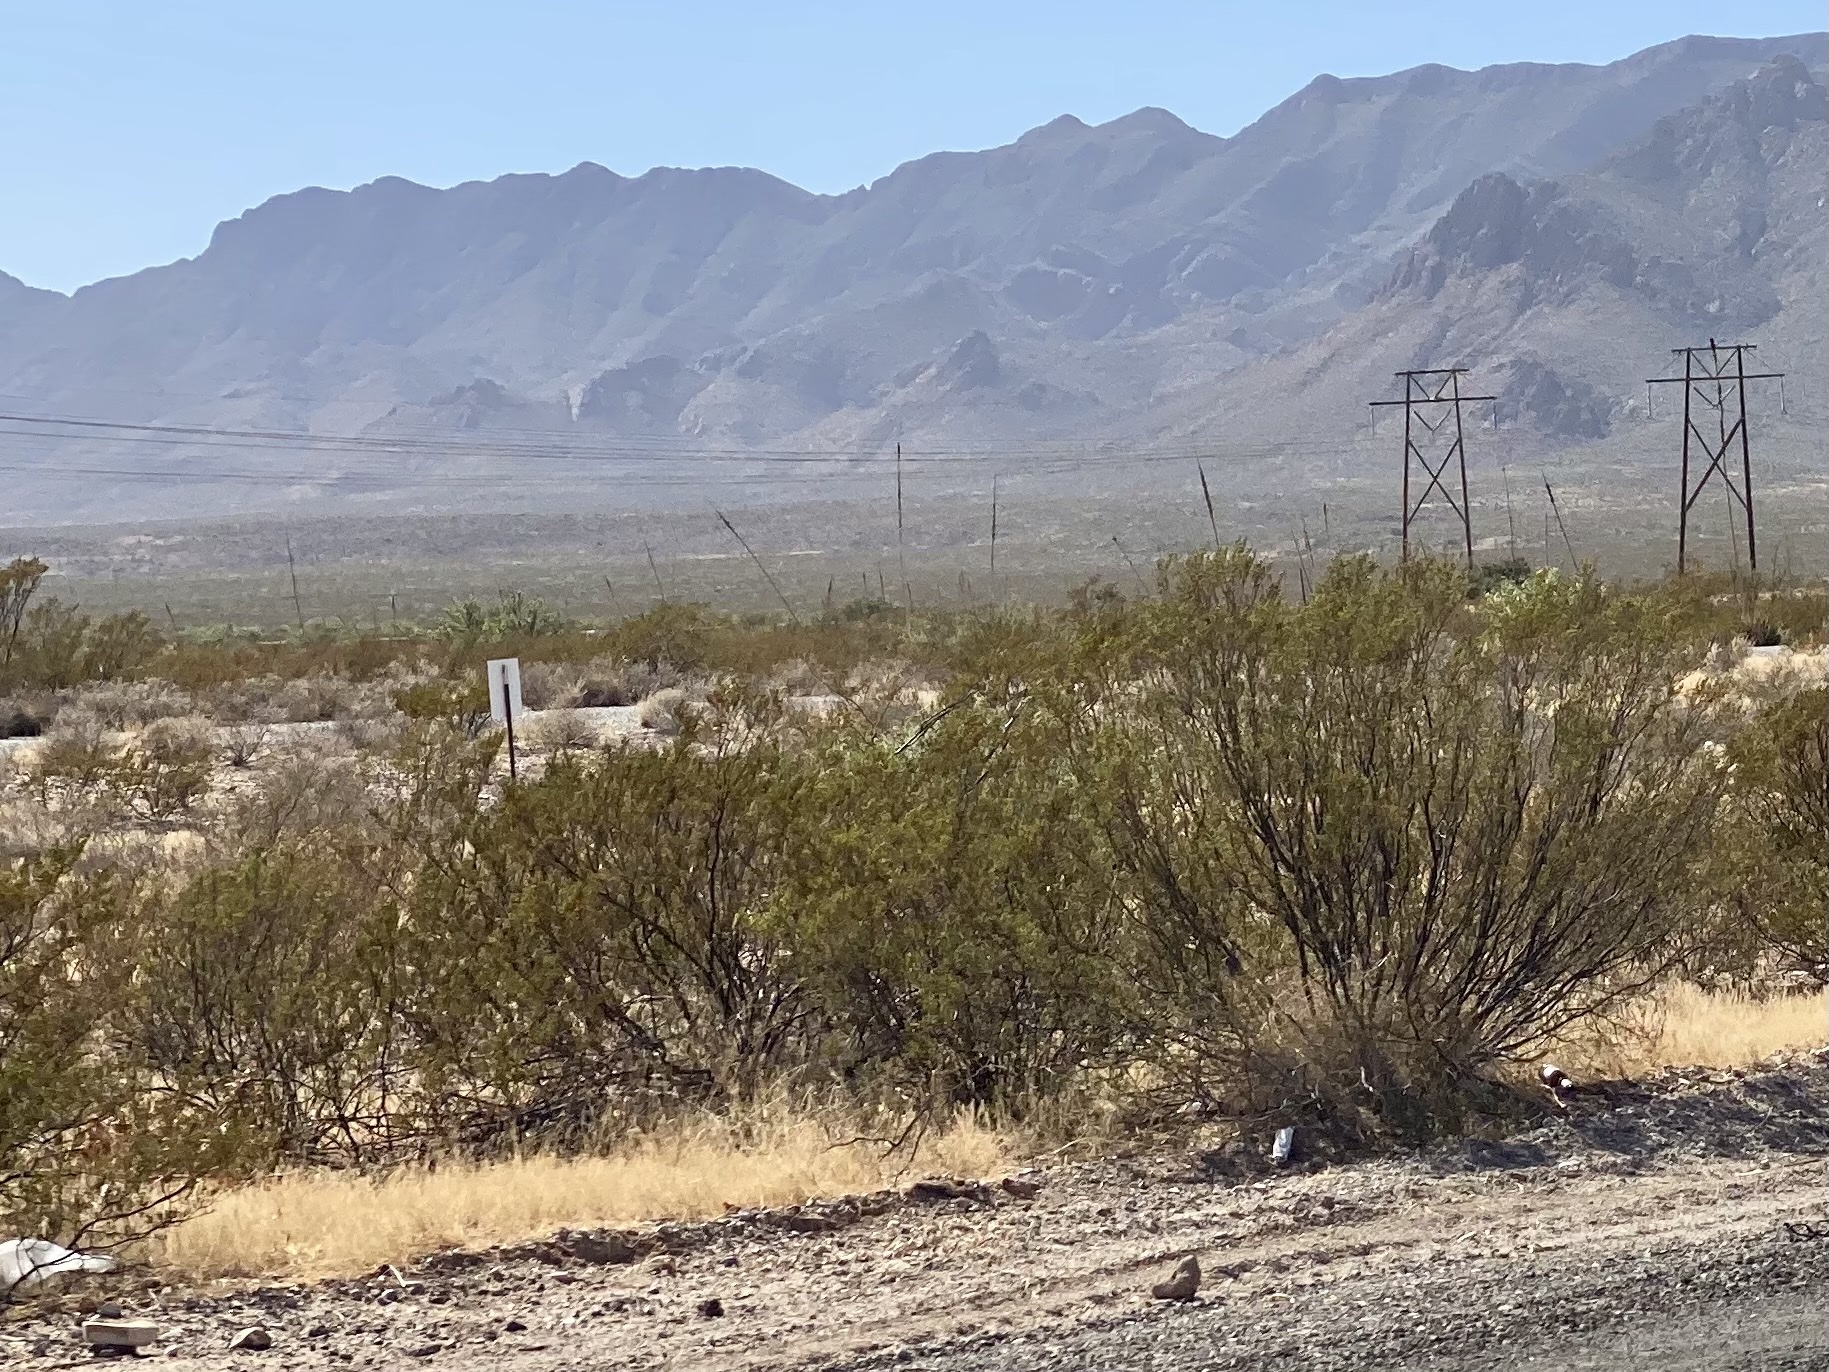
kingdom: Plantae
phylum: Tracheophyta
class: Magnoliopsida
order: Zygophyllales
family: Zygophyllaceae
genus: Larrea
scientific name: Larrea tridentata
